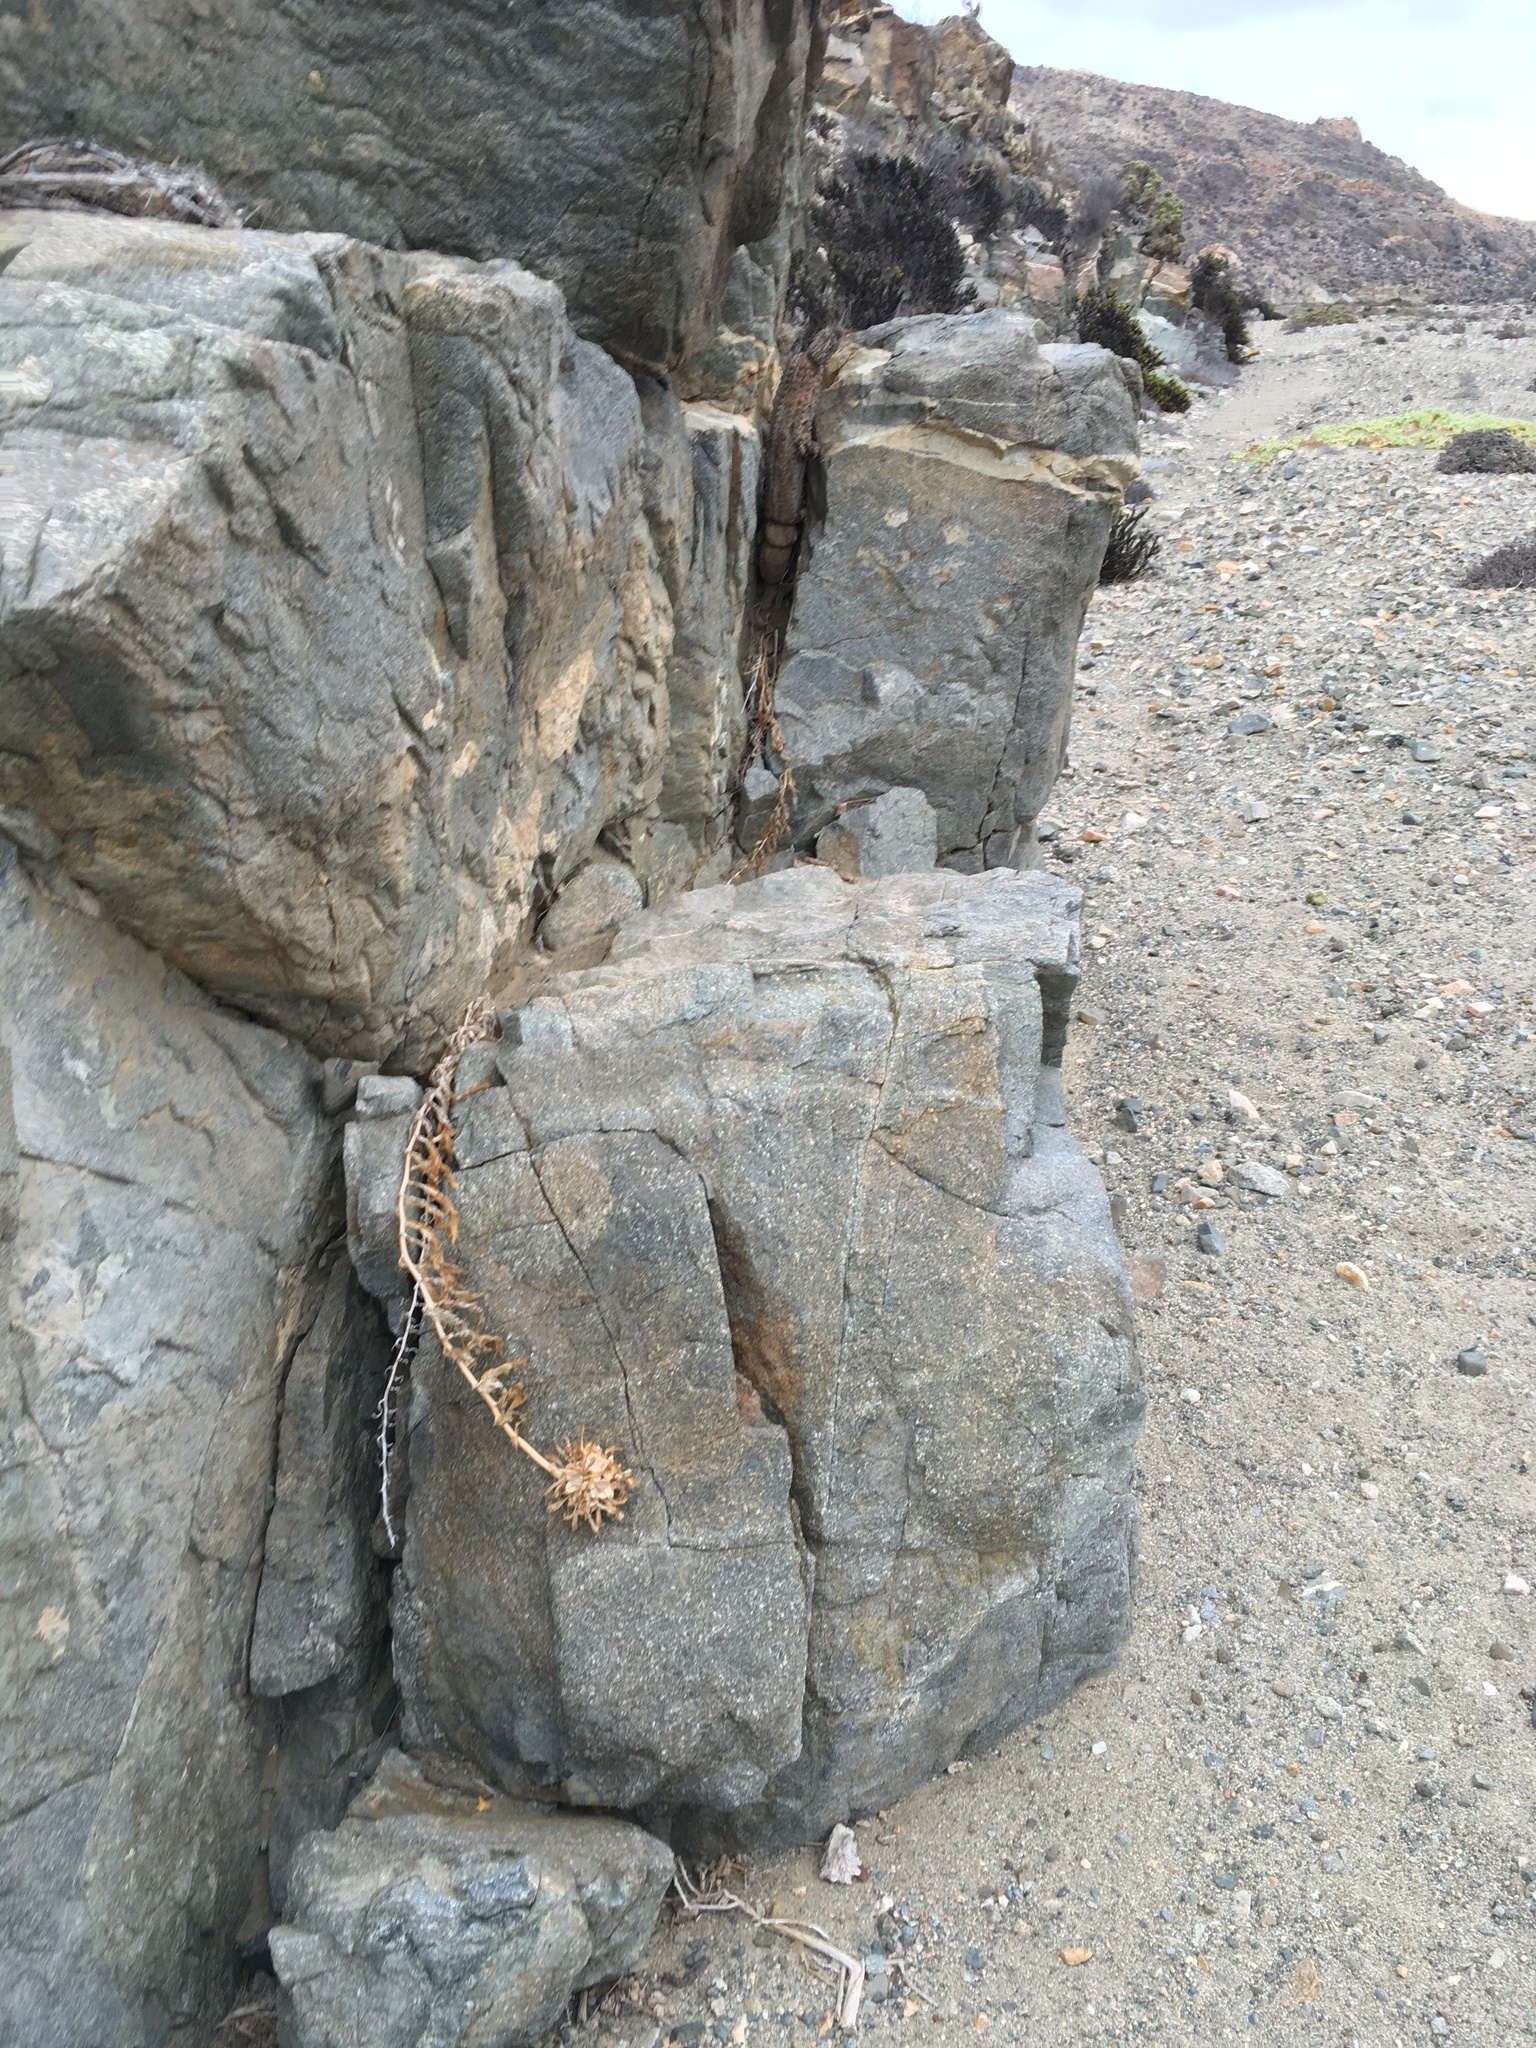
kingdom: Plantae
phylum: Tracheophyta
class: Liliopsida
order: Liliales
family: Alstroemeriaceae
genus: Bomarea
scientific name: Bomarea ovallei
